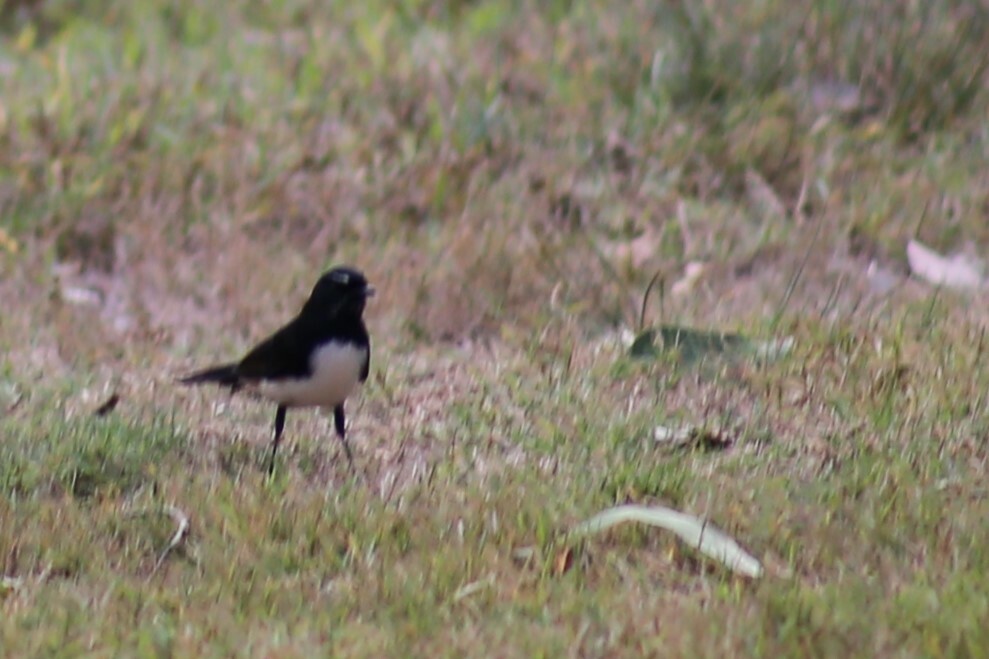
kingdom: Animalia
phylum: Chordata
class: Aves
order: Passeriformes
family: Rhipiduridae
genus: Rhipidura
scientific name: Rhipidura leucophrys
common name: Willie wagtail
